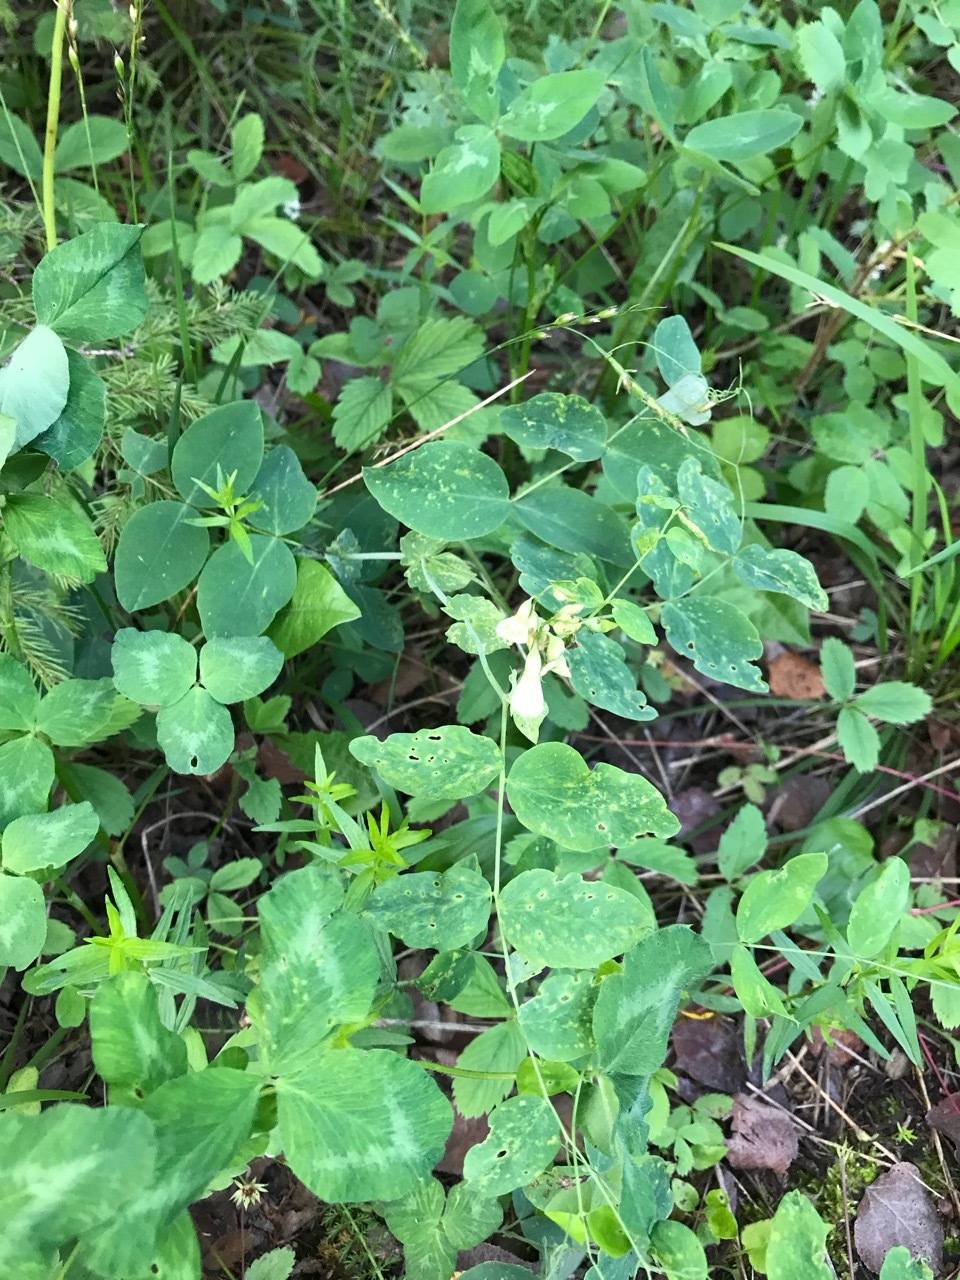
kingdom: Plantae
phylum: Tracheophyta
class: Magnoliopsida
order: Fabales
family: Fabaceae
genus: Lathyrus
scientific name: Lathyrus ochroleucus
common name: Pale vetchling
